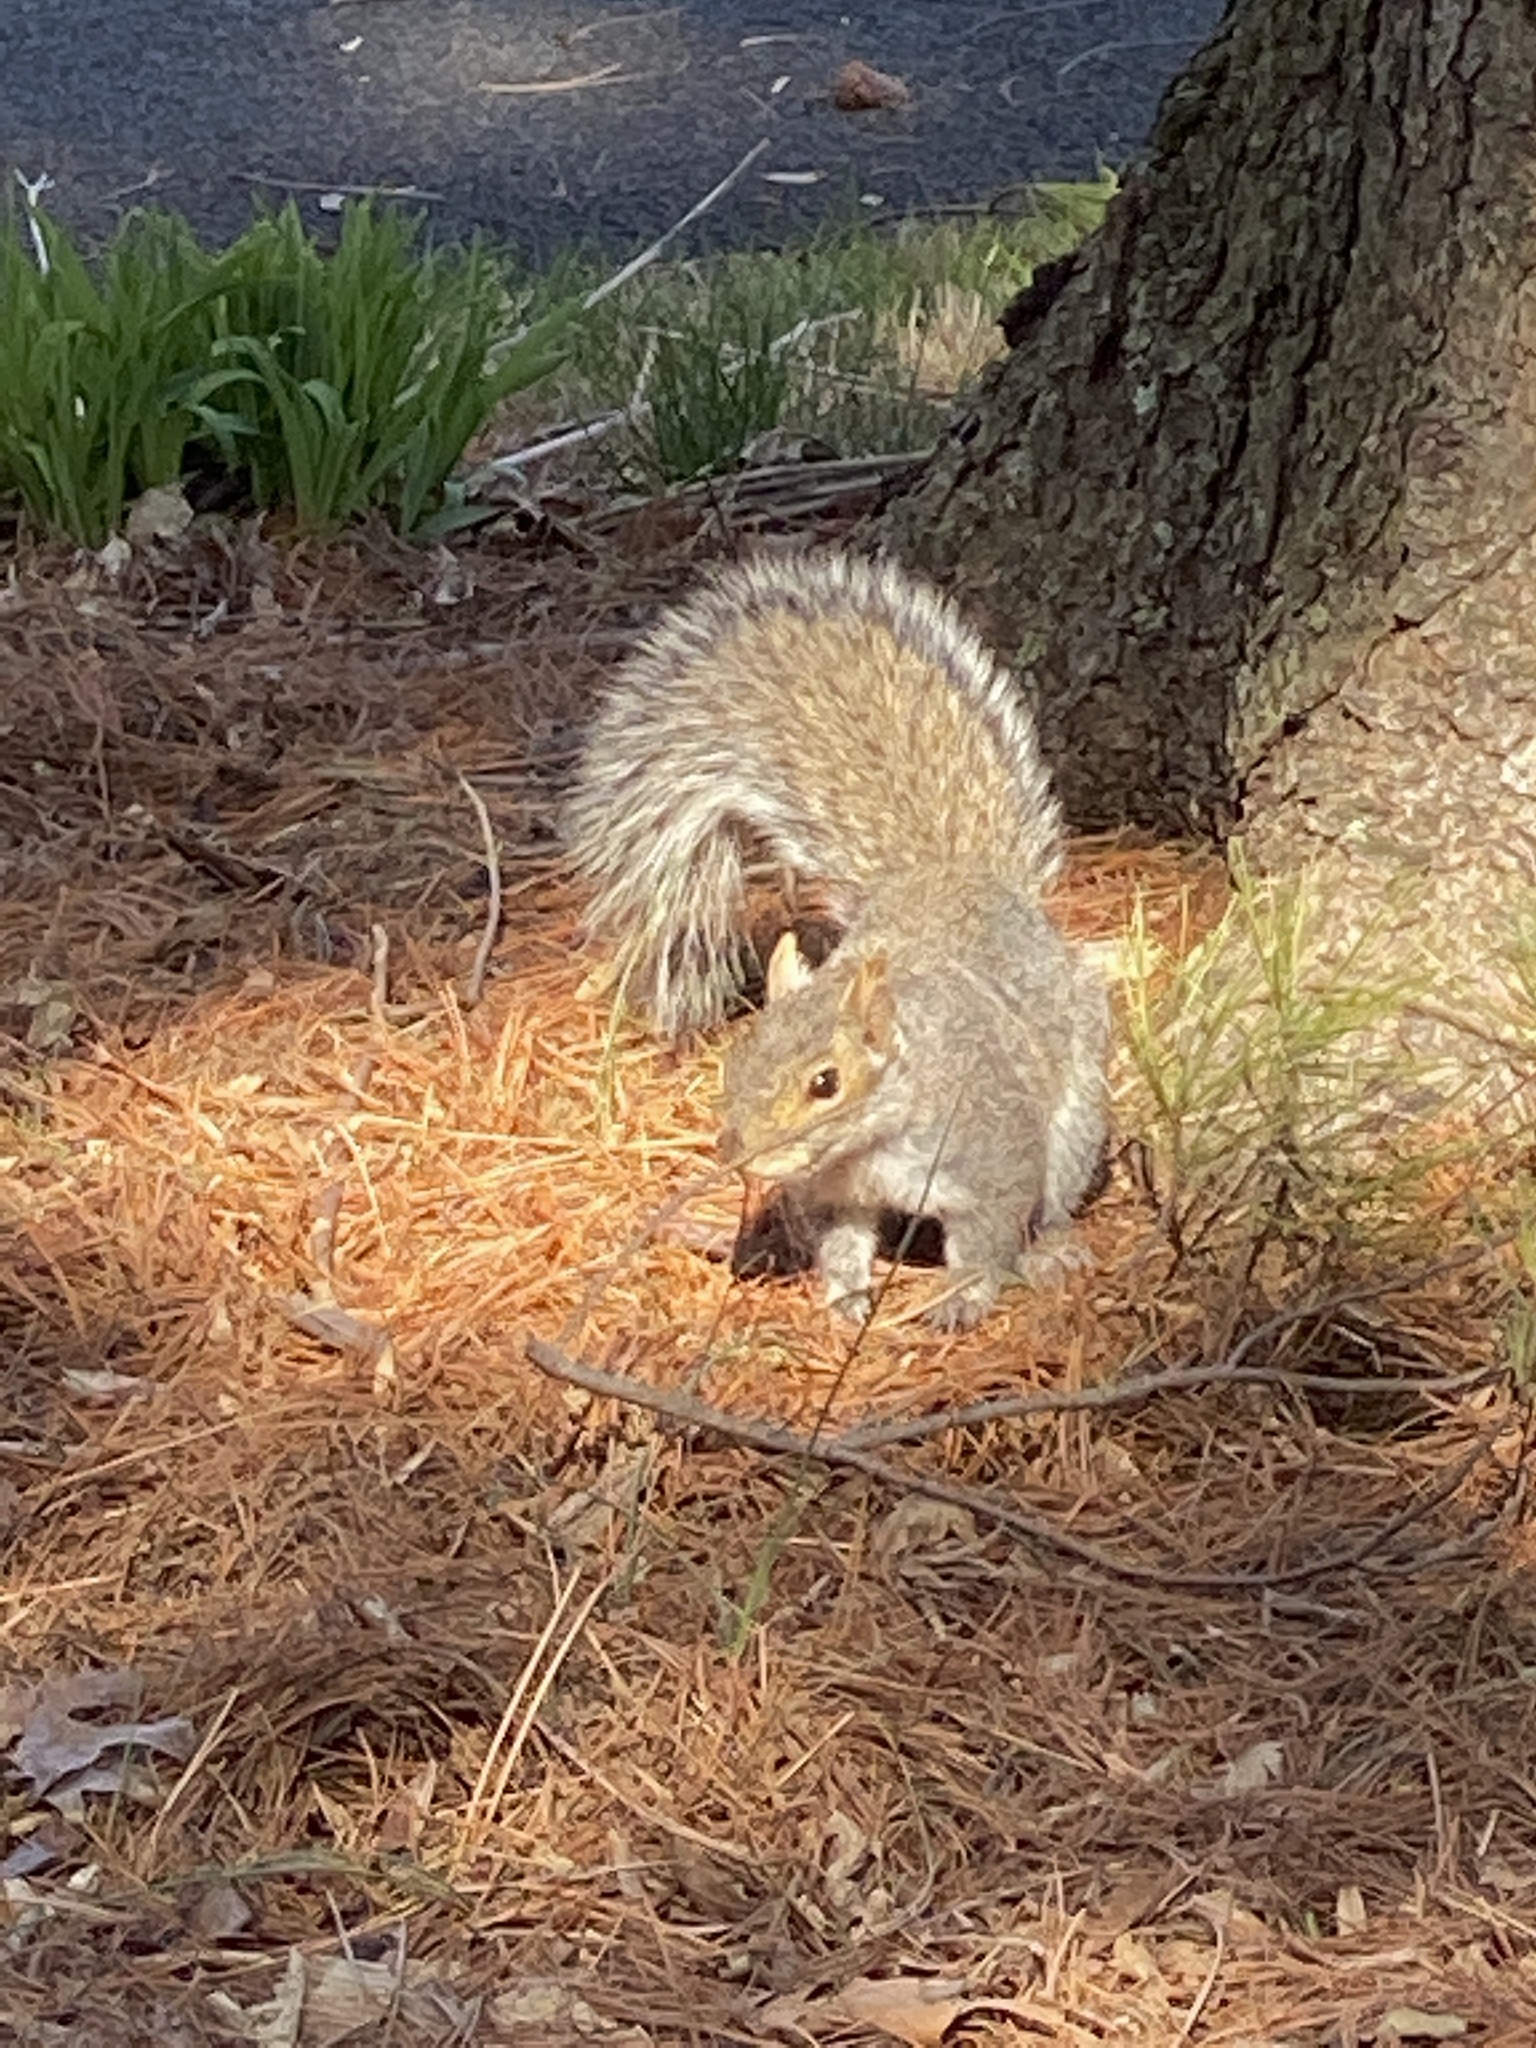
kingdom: Animalia
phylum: Chordata
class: Mammalia
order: Rodentia
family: Sciuridae
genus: Sciurus
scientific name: Sciurus carolinensis
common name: Eastern gray squirrel
